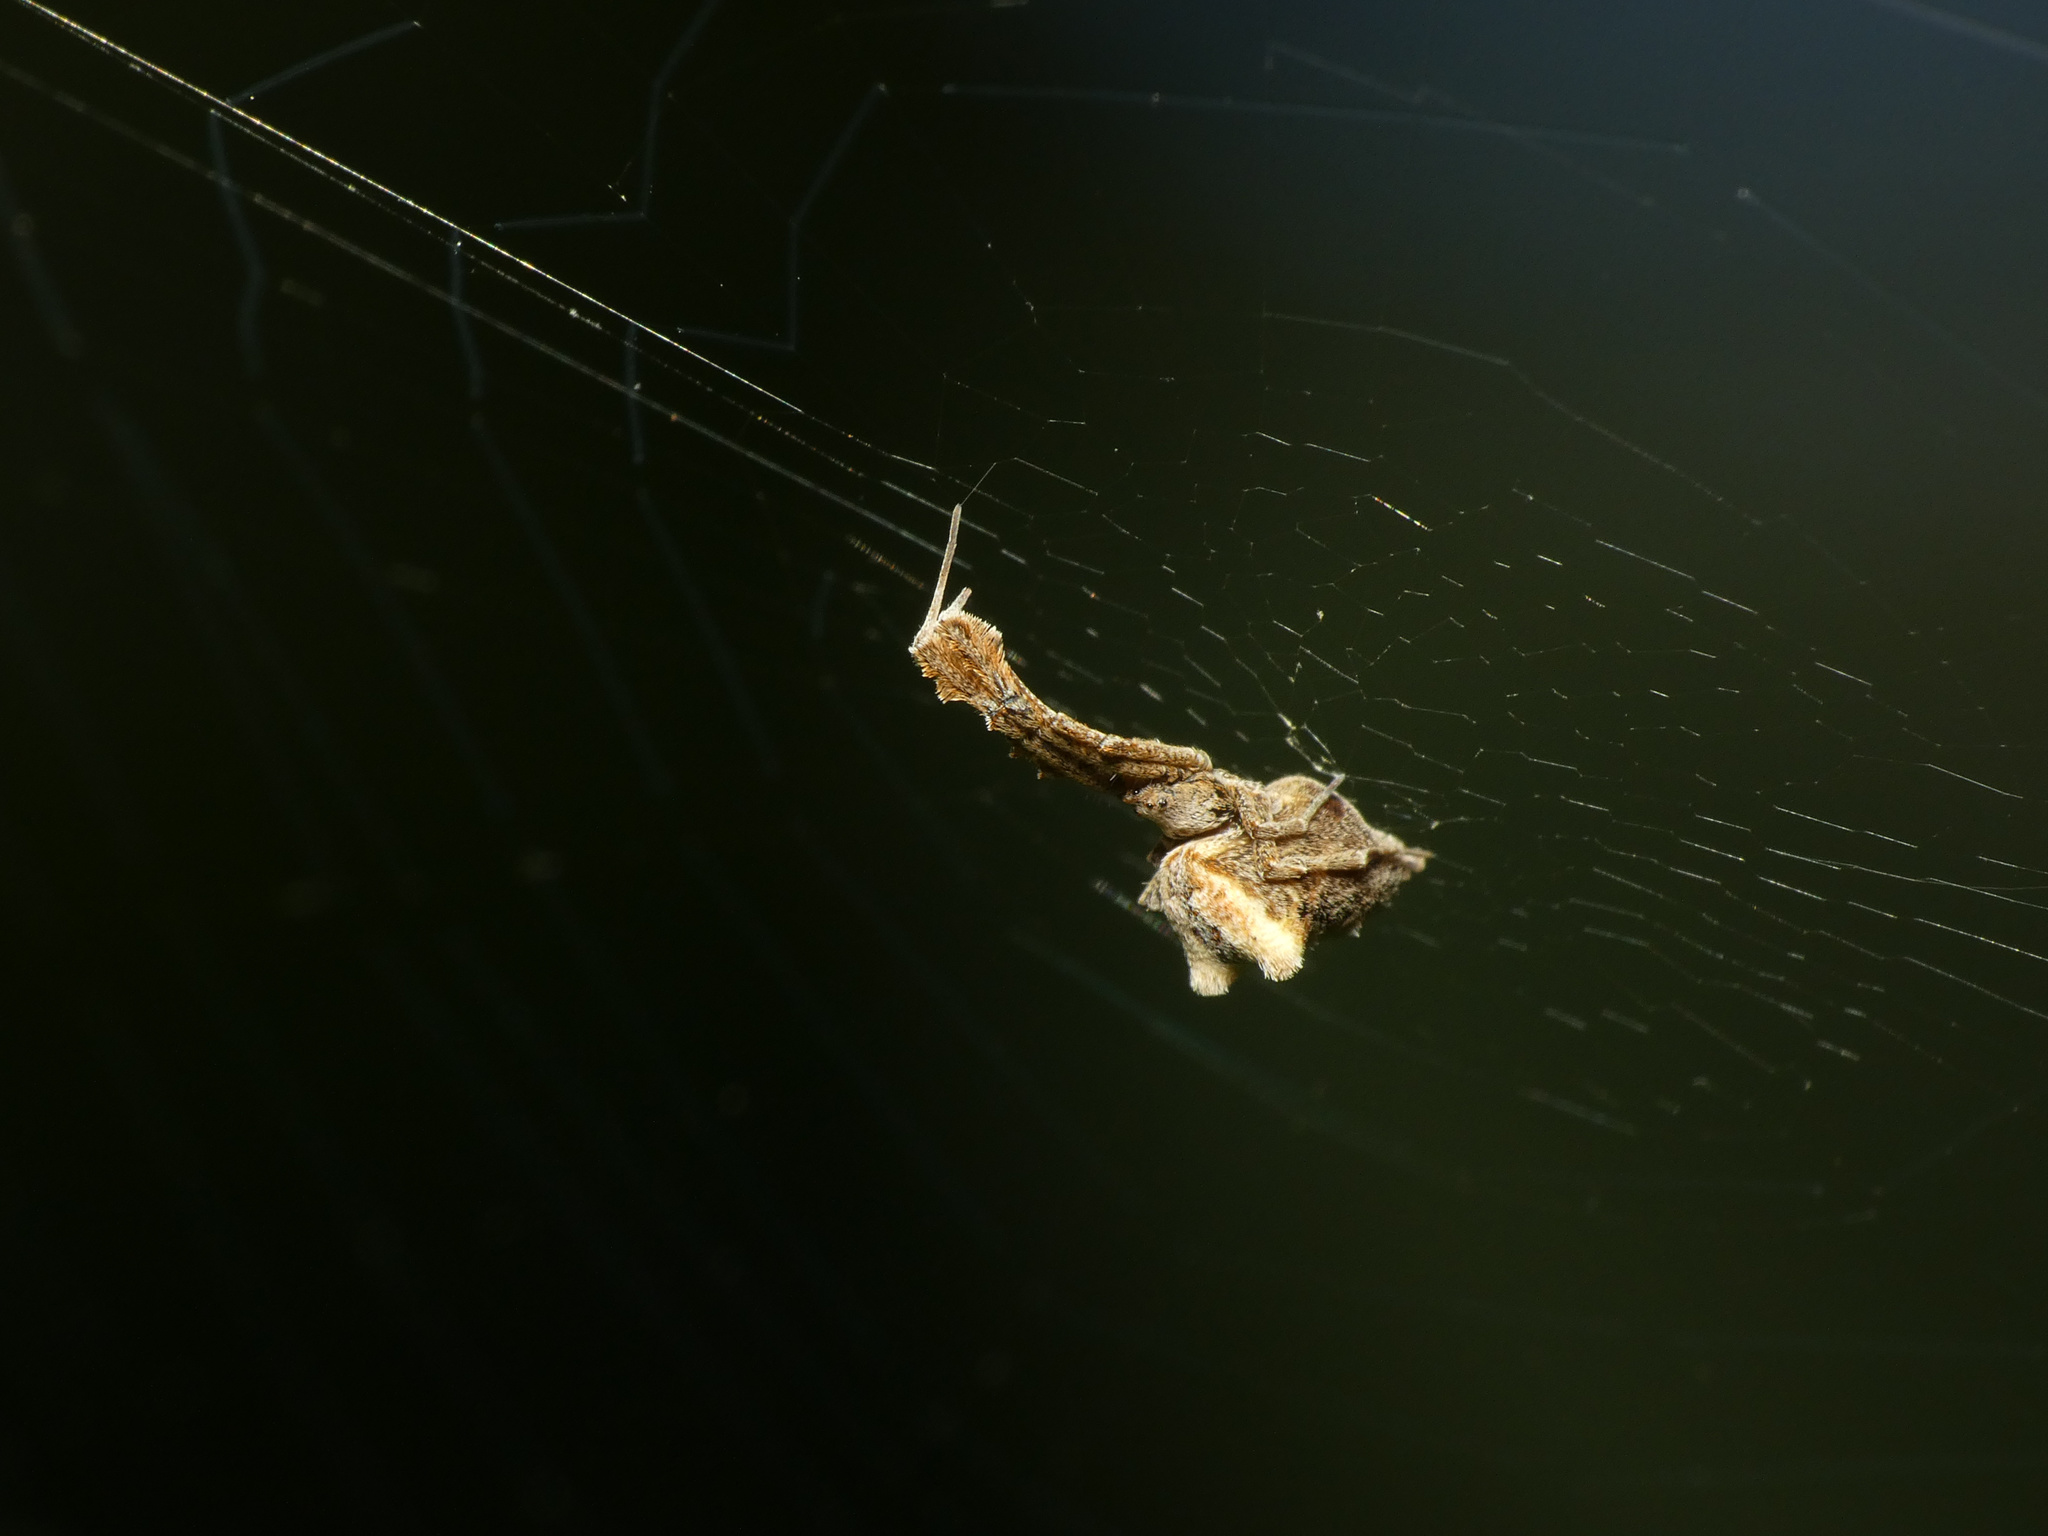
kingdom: Animalia
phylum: Arthropoda
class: Arachnida
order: Araneae
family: Uloboridae
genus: Uloborus
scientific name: Uloborus plumipes
